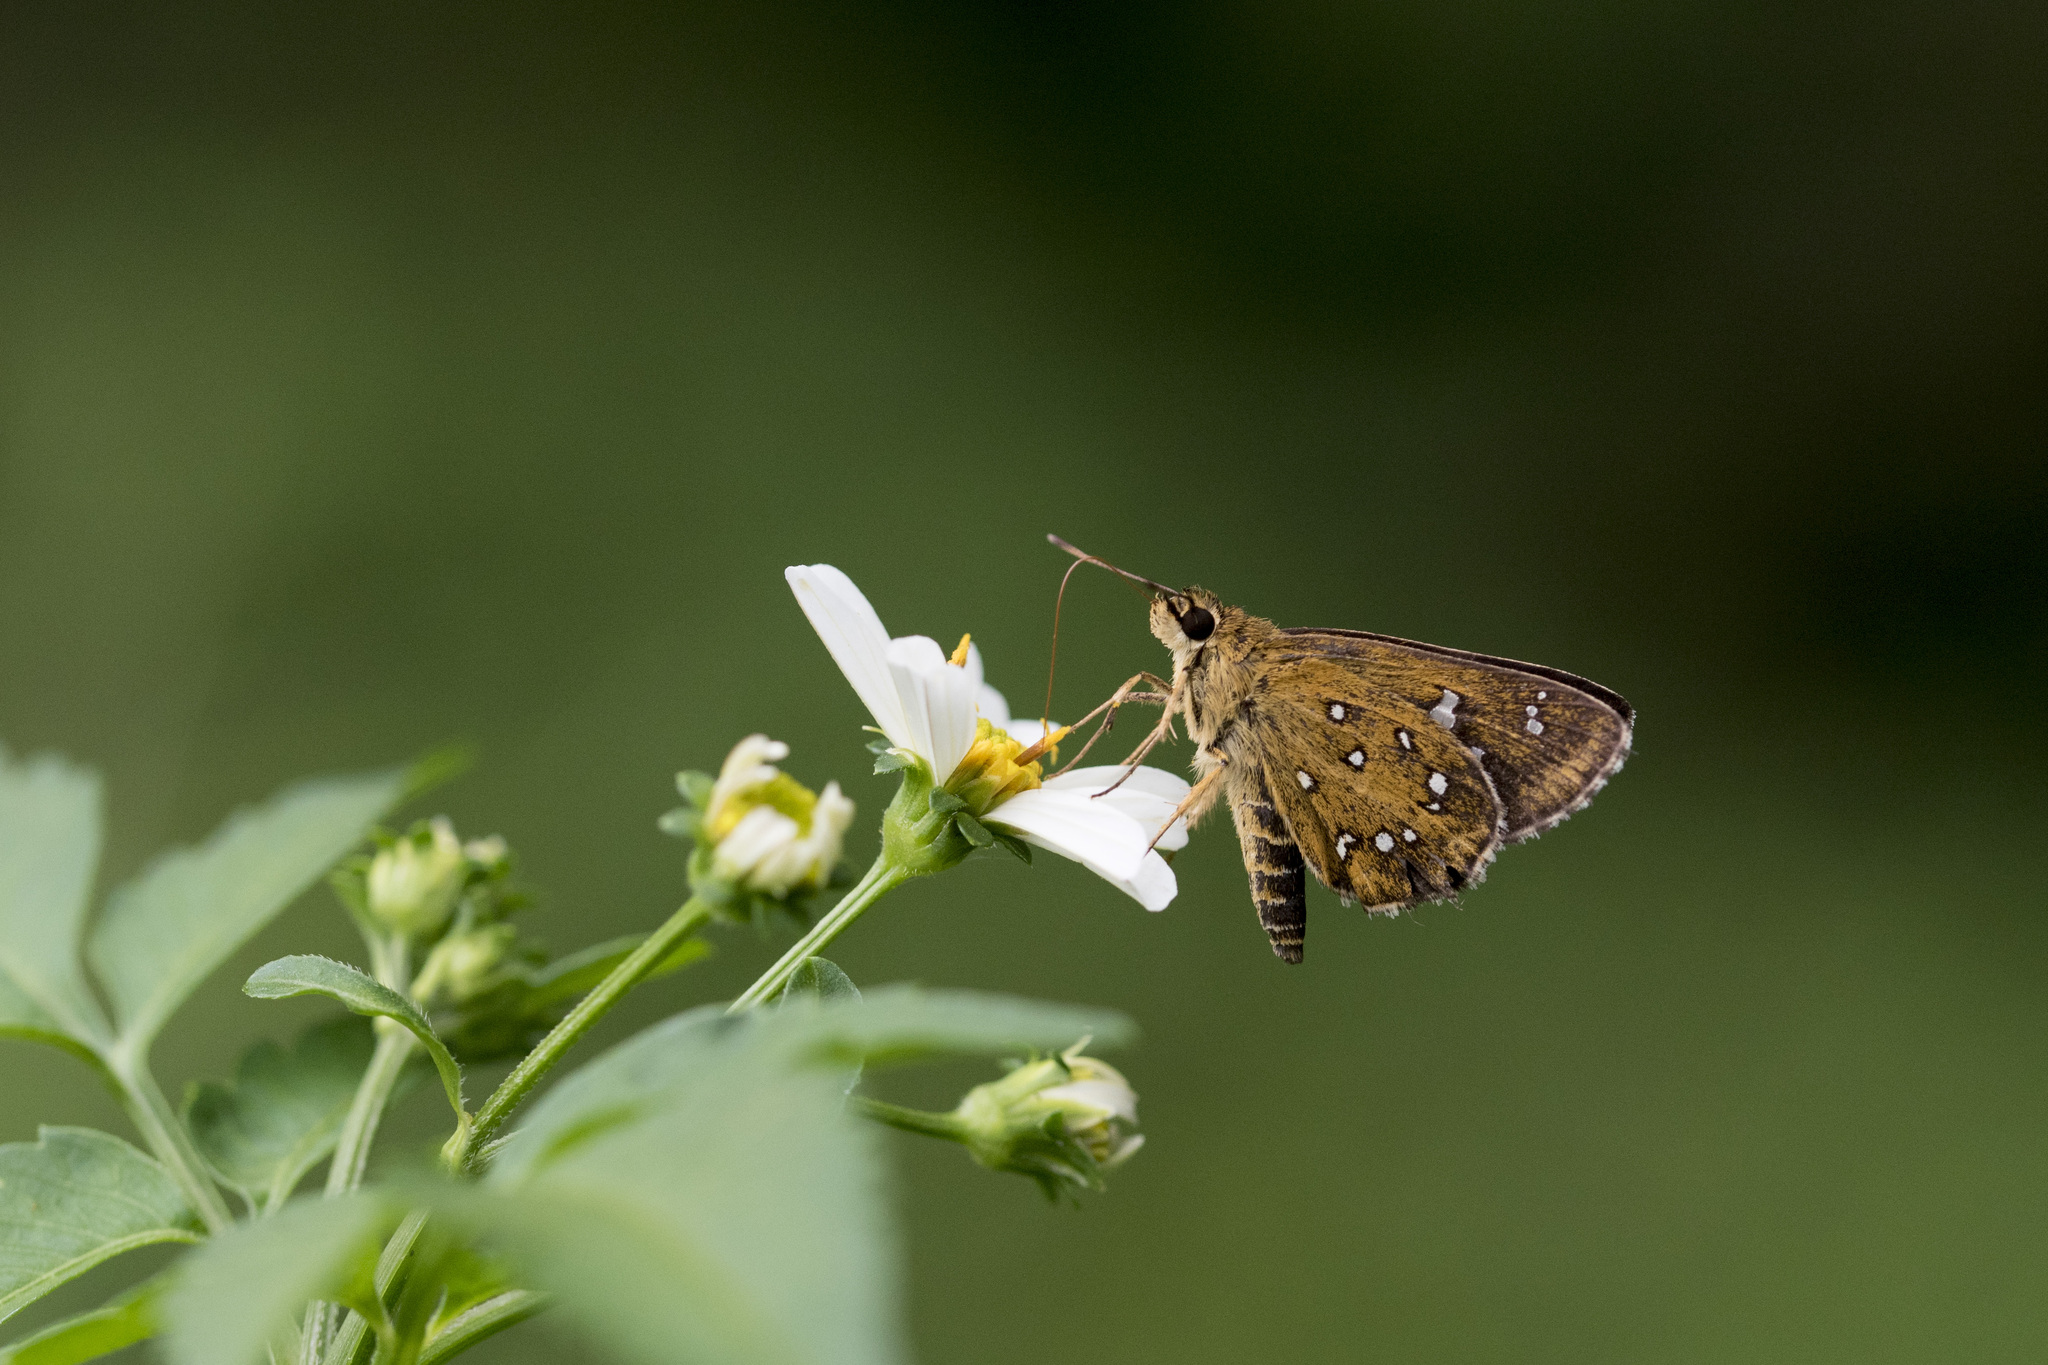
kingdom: Animalia
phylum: Arthropoda
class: Insecta
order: Lepidoptera
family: Hesperiidae
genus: Isoteinon
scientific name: Isoteinon lamprospilus
